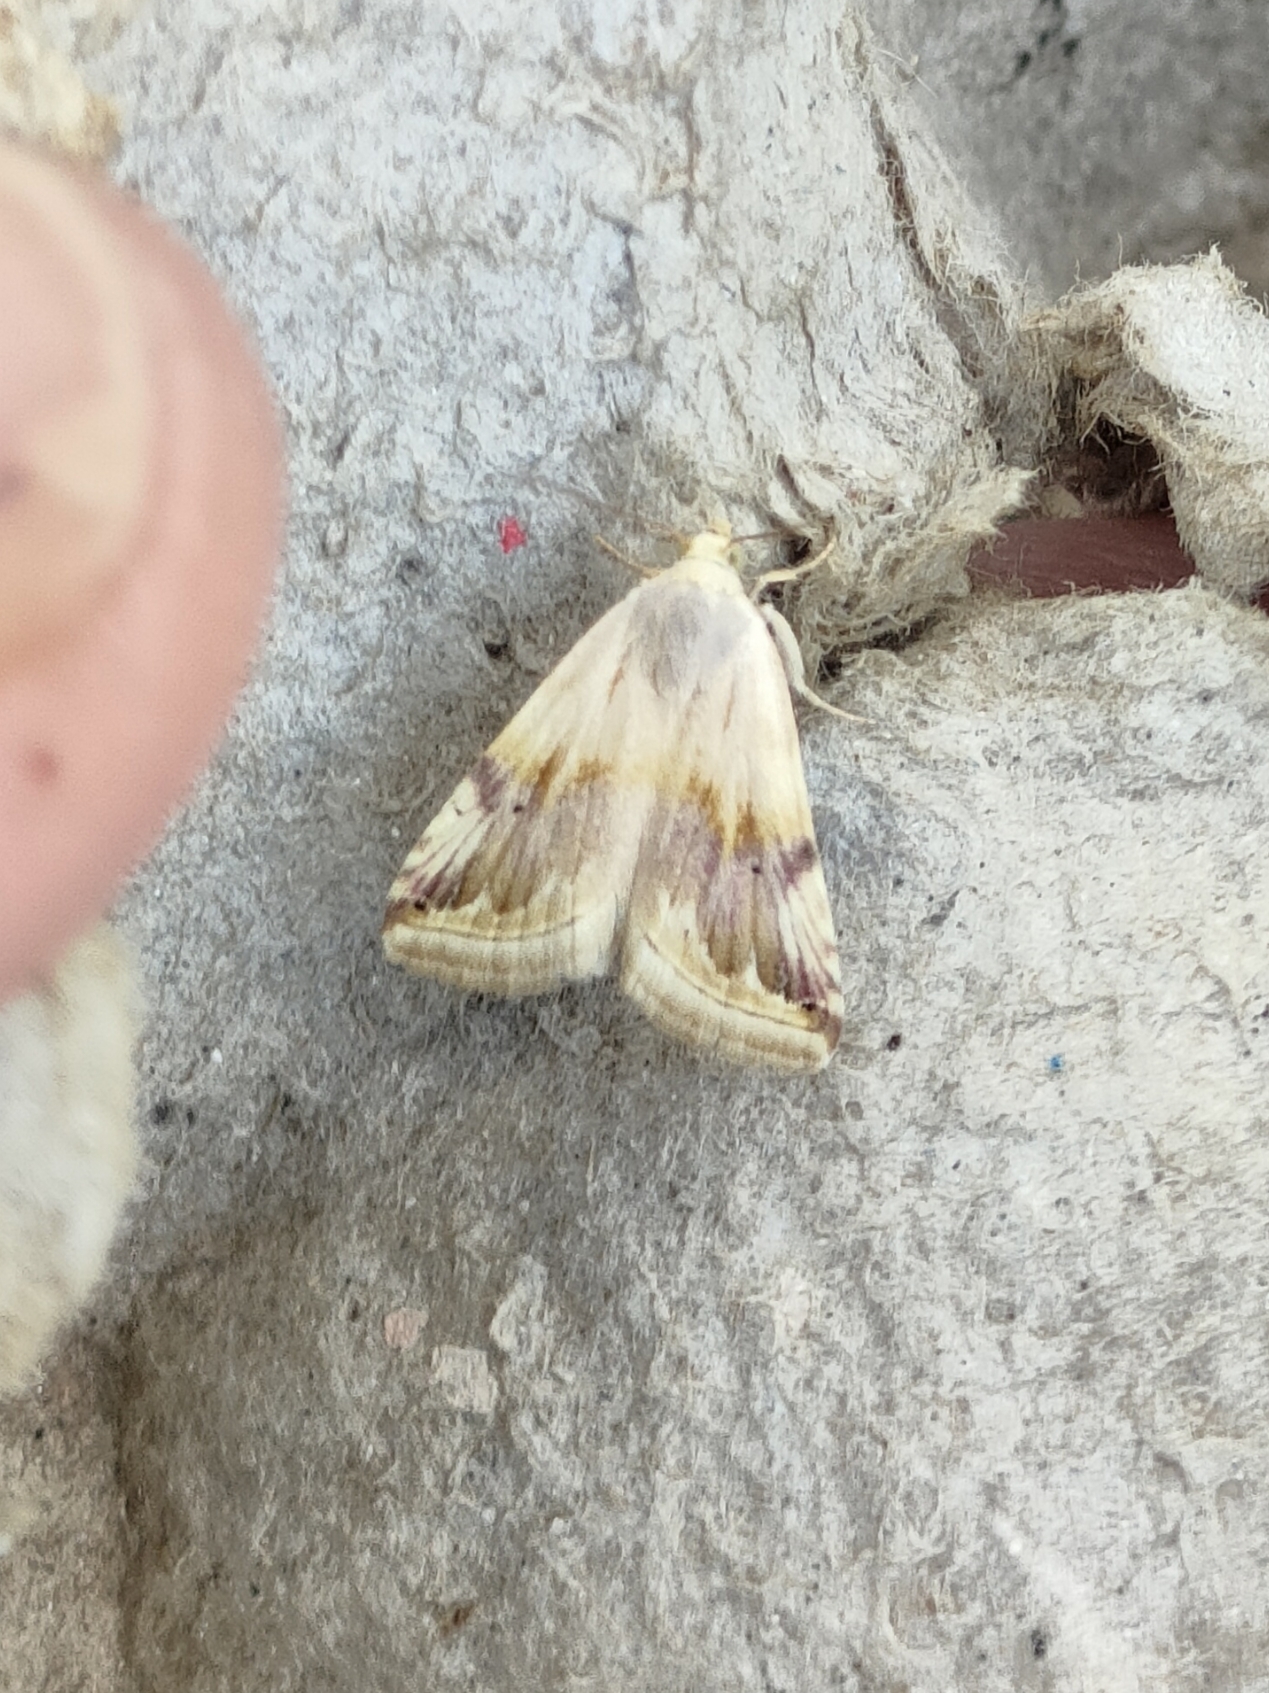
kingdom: Animalia
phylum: Arthropoda
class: Insecta
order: Lepidoptera
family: Noctuidae
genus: Eublemma
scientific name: Eublemma ostrina
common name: Purple marbled
